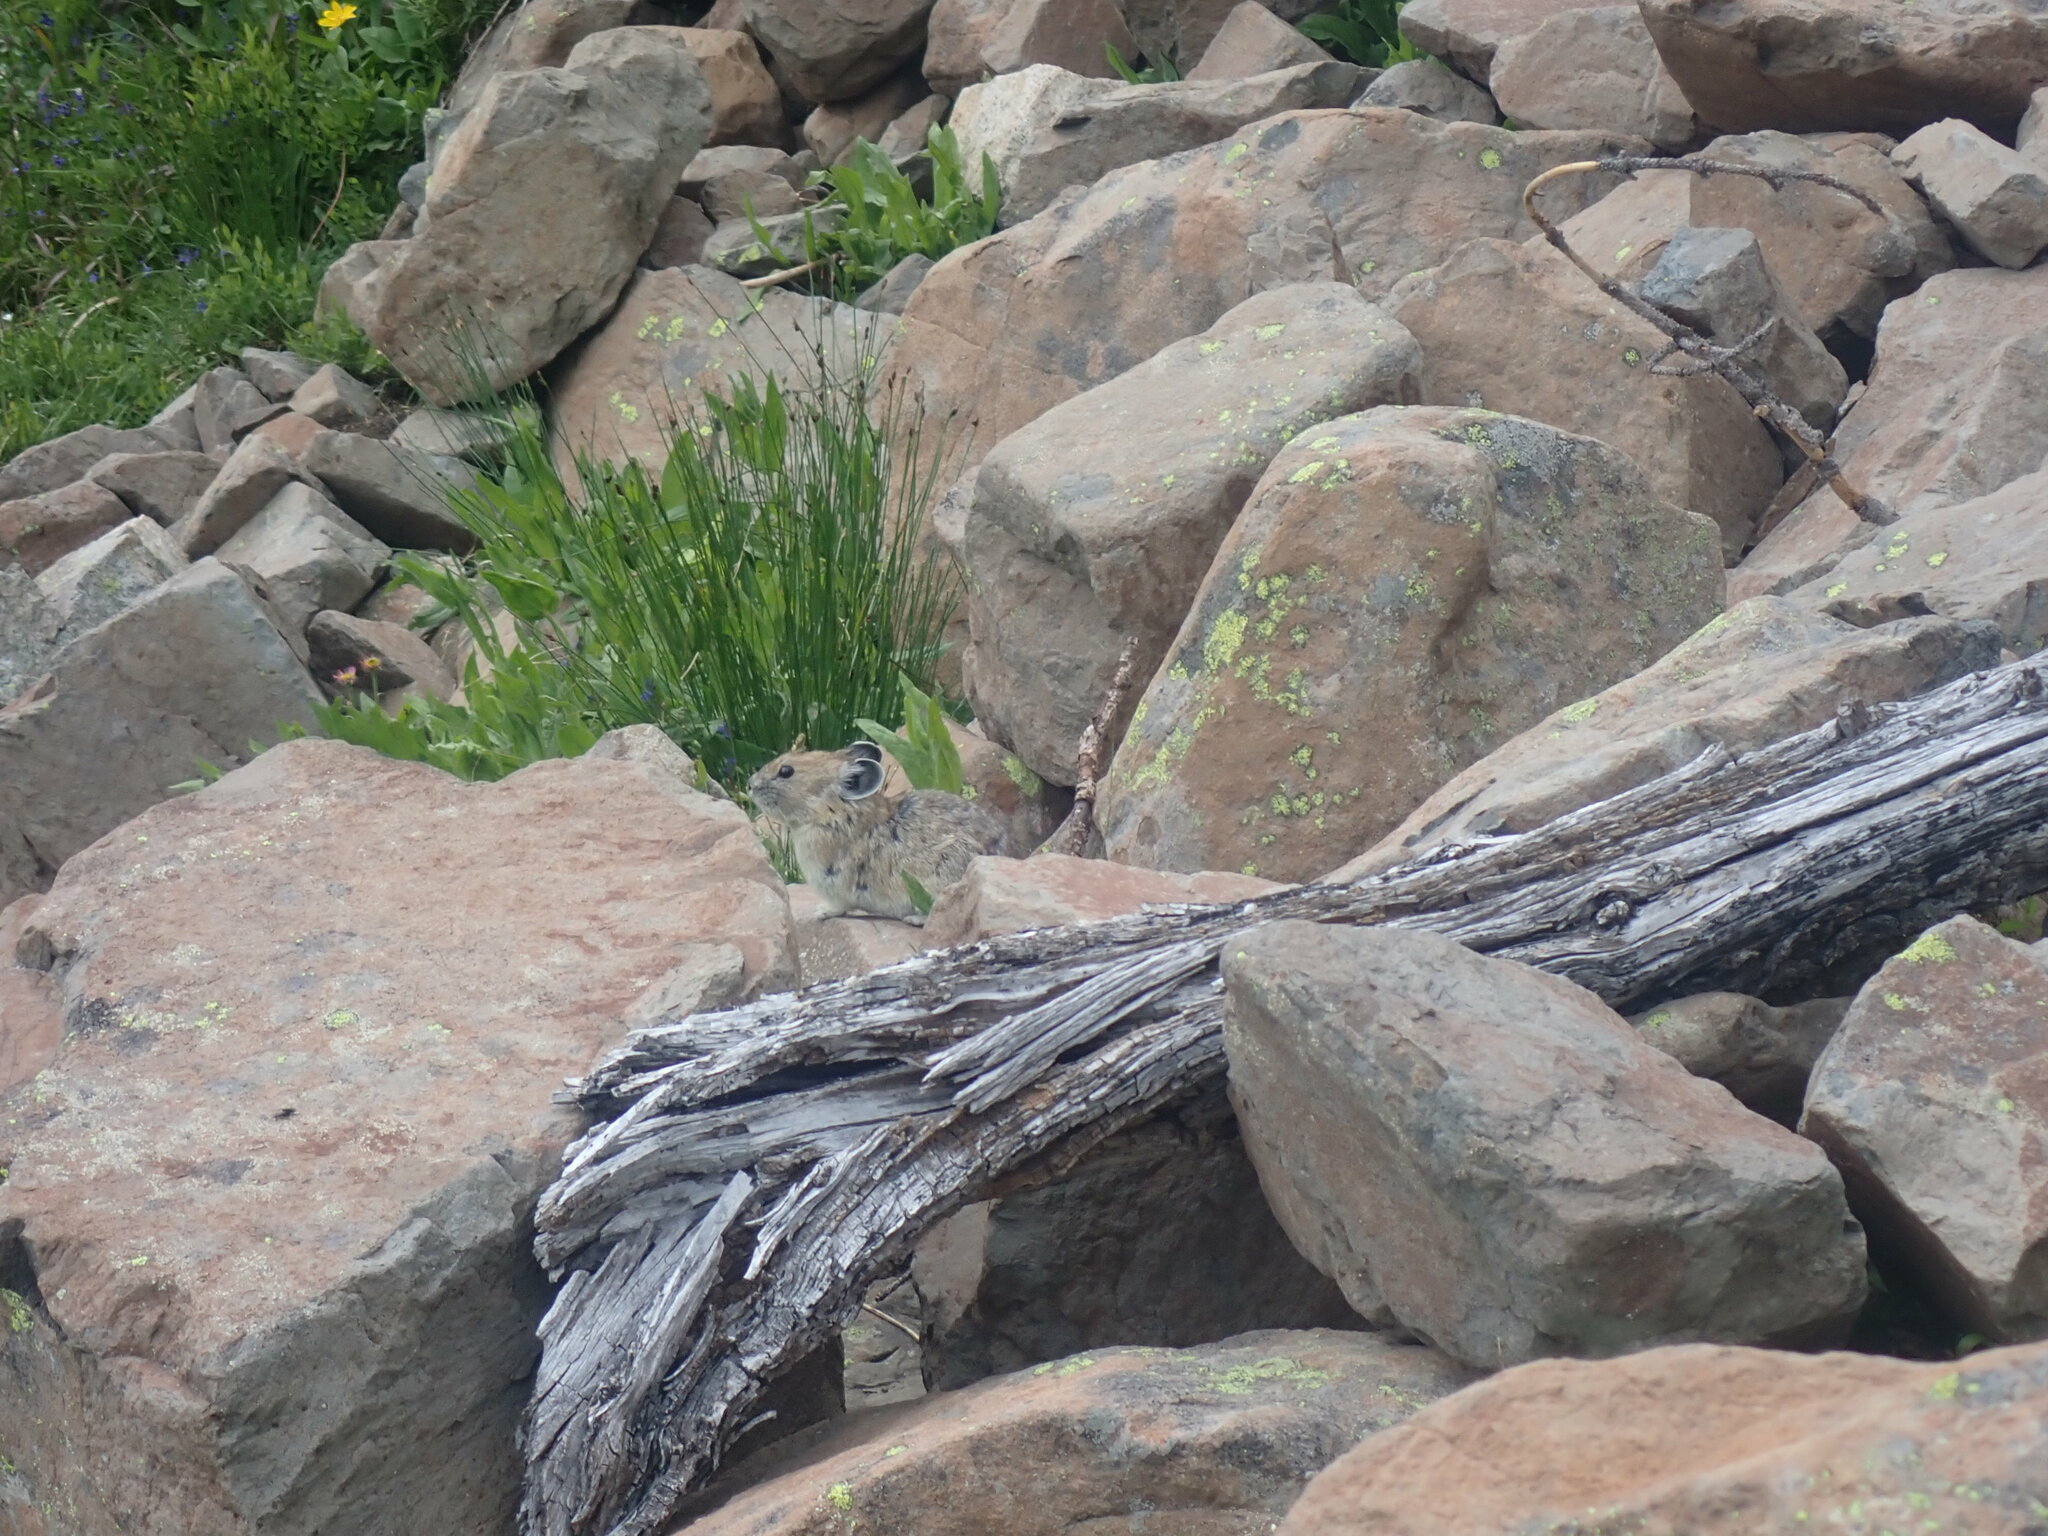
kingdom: Animalia
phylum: Chordata
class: Mammalia
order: Lagomorpha
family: Ochotonidae
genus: Ochotona
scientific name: Ochotona princeps
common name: American pika
